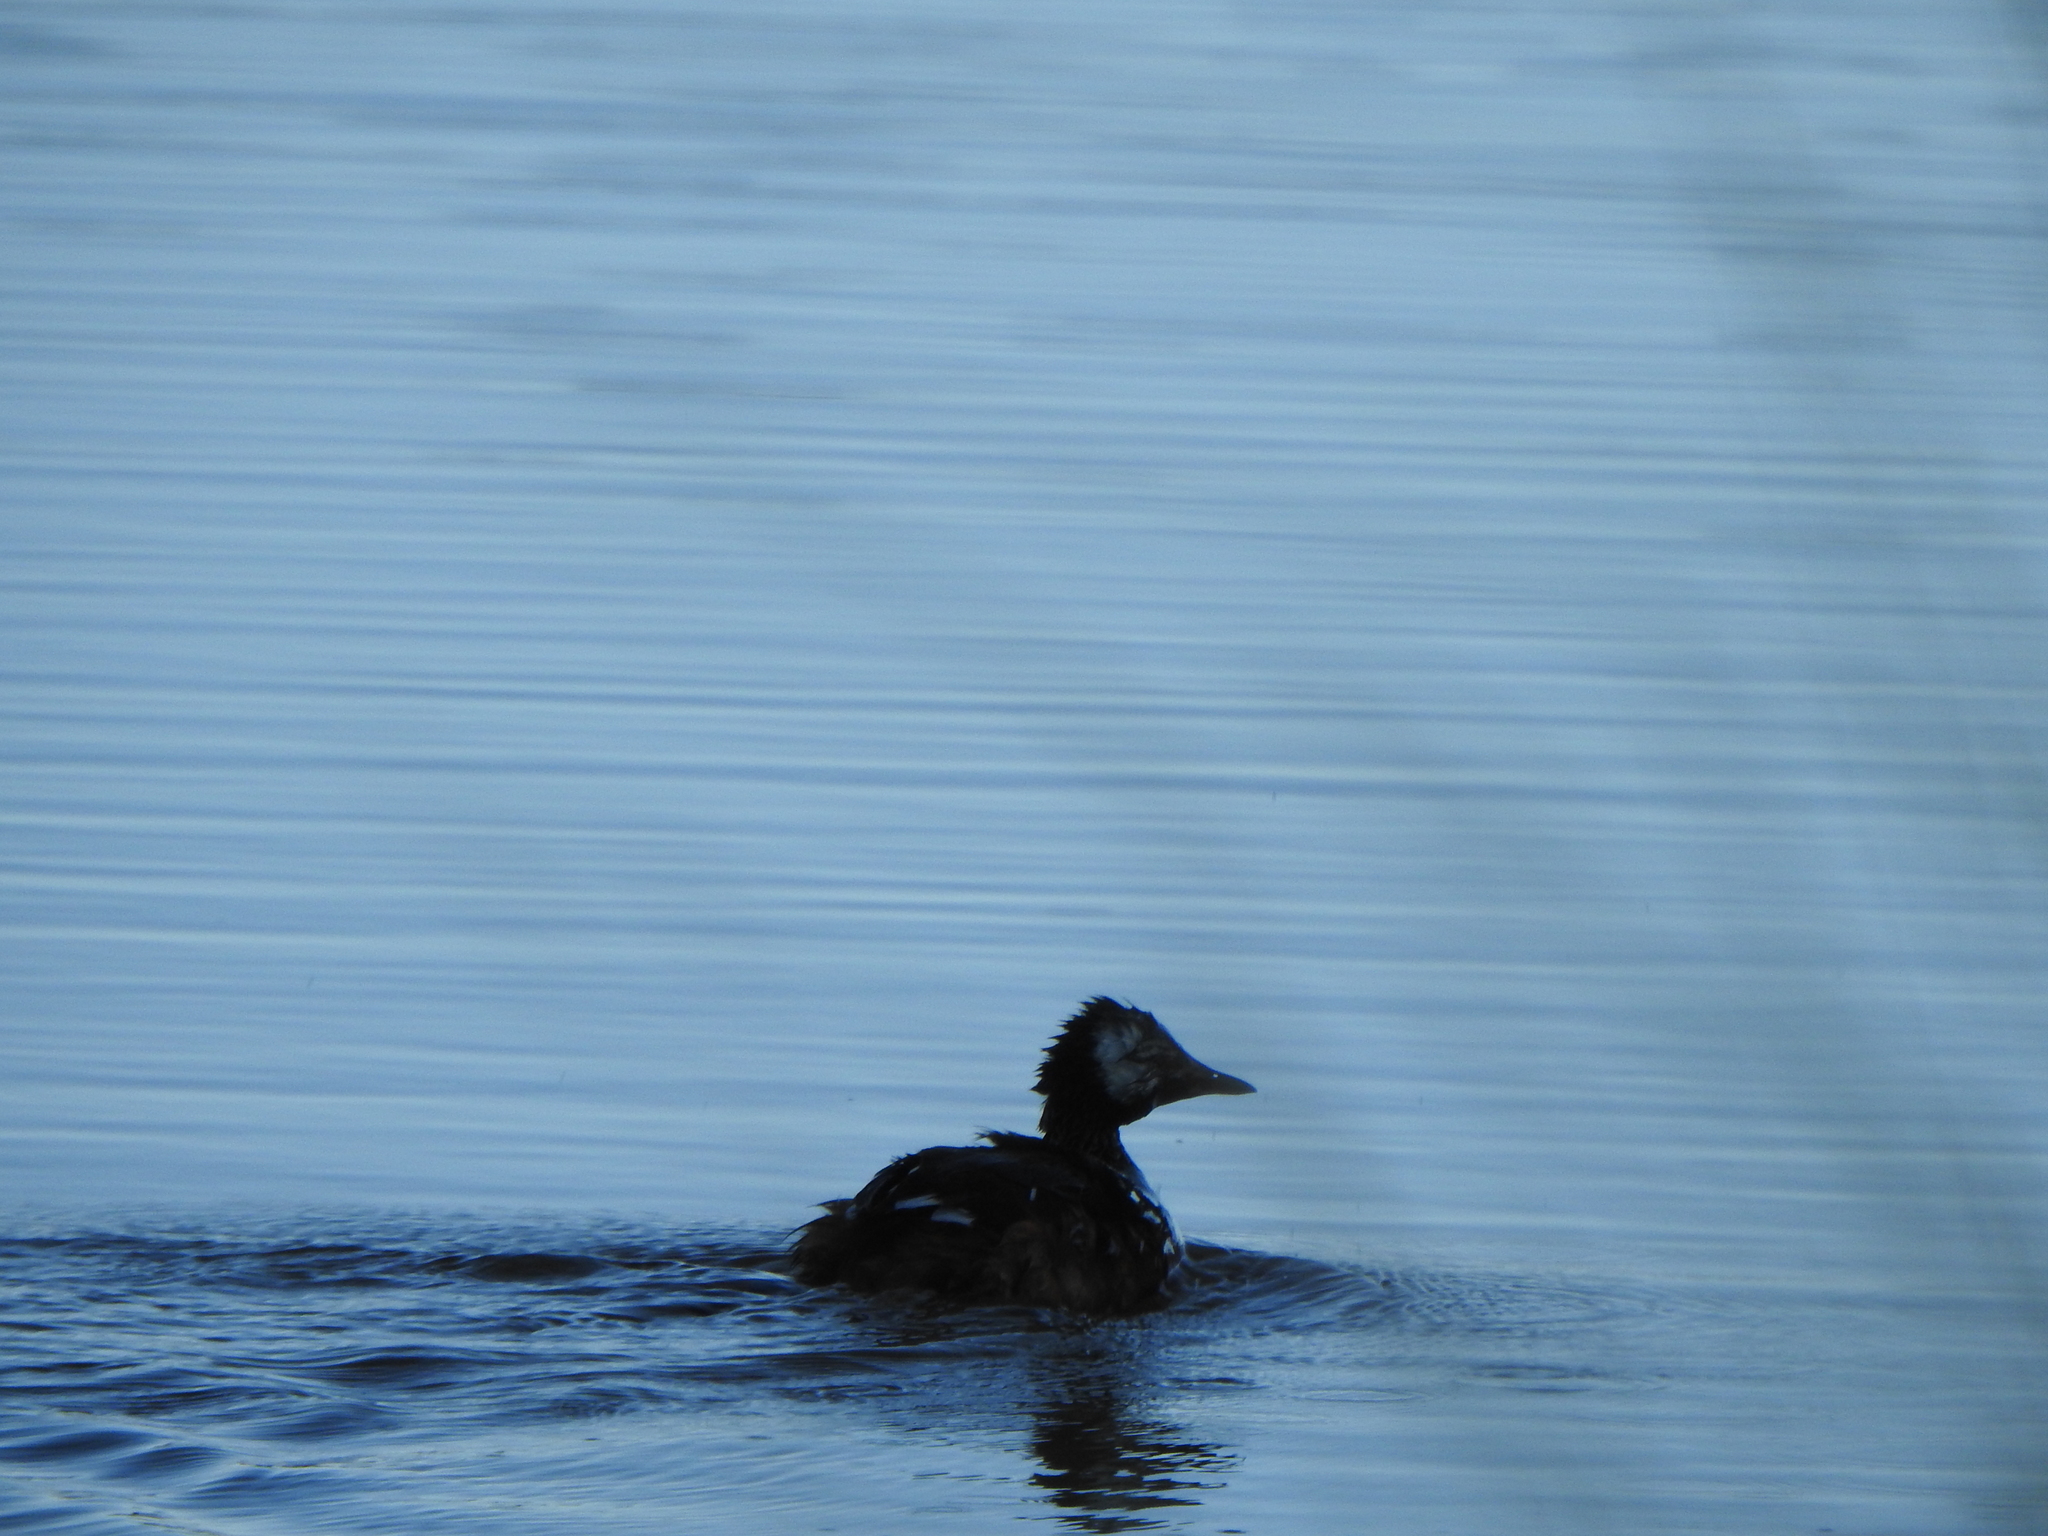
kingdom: Animalia
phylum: Chordata
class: Aves
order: Podicipediformes
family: Podicipedidae
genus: Rollandia
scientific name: Rollandia rolland
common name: White-tufted grebe
